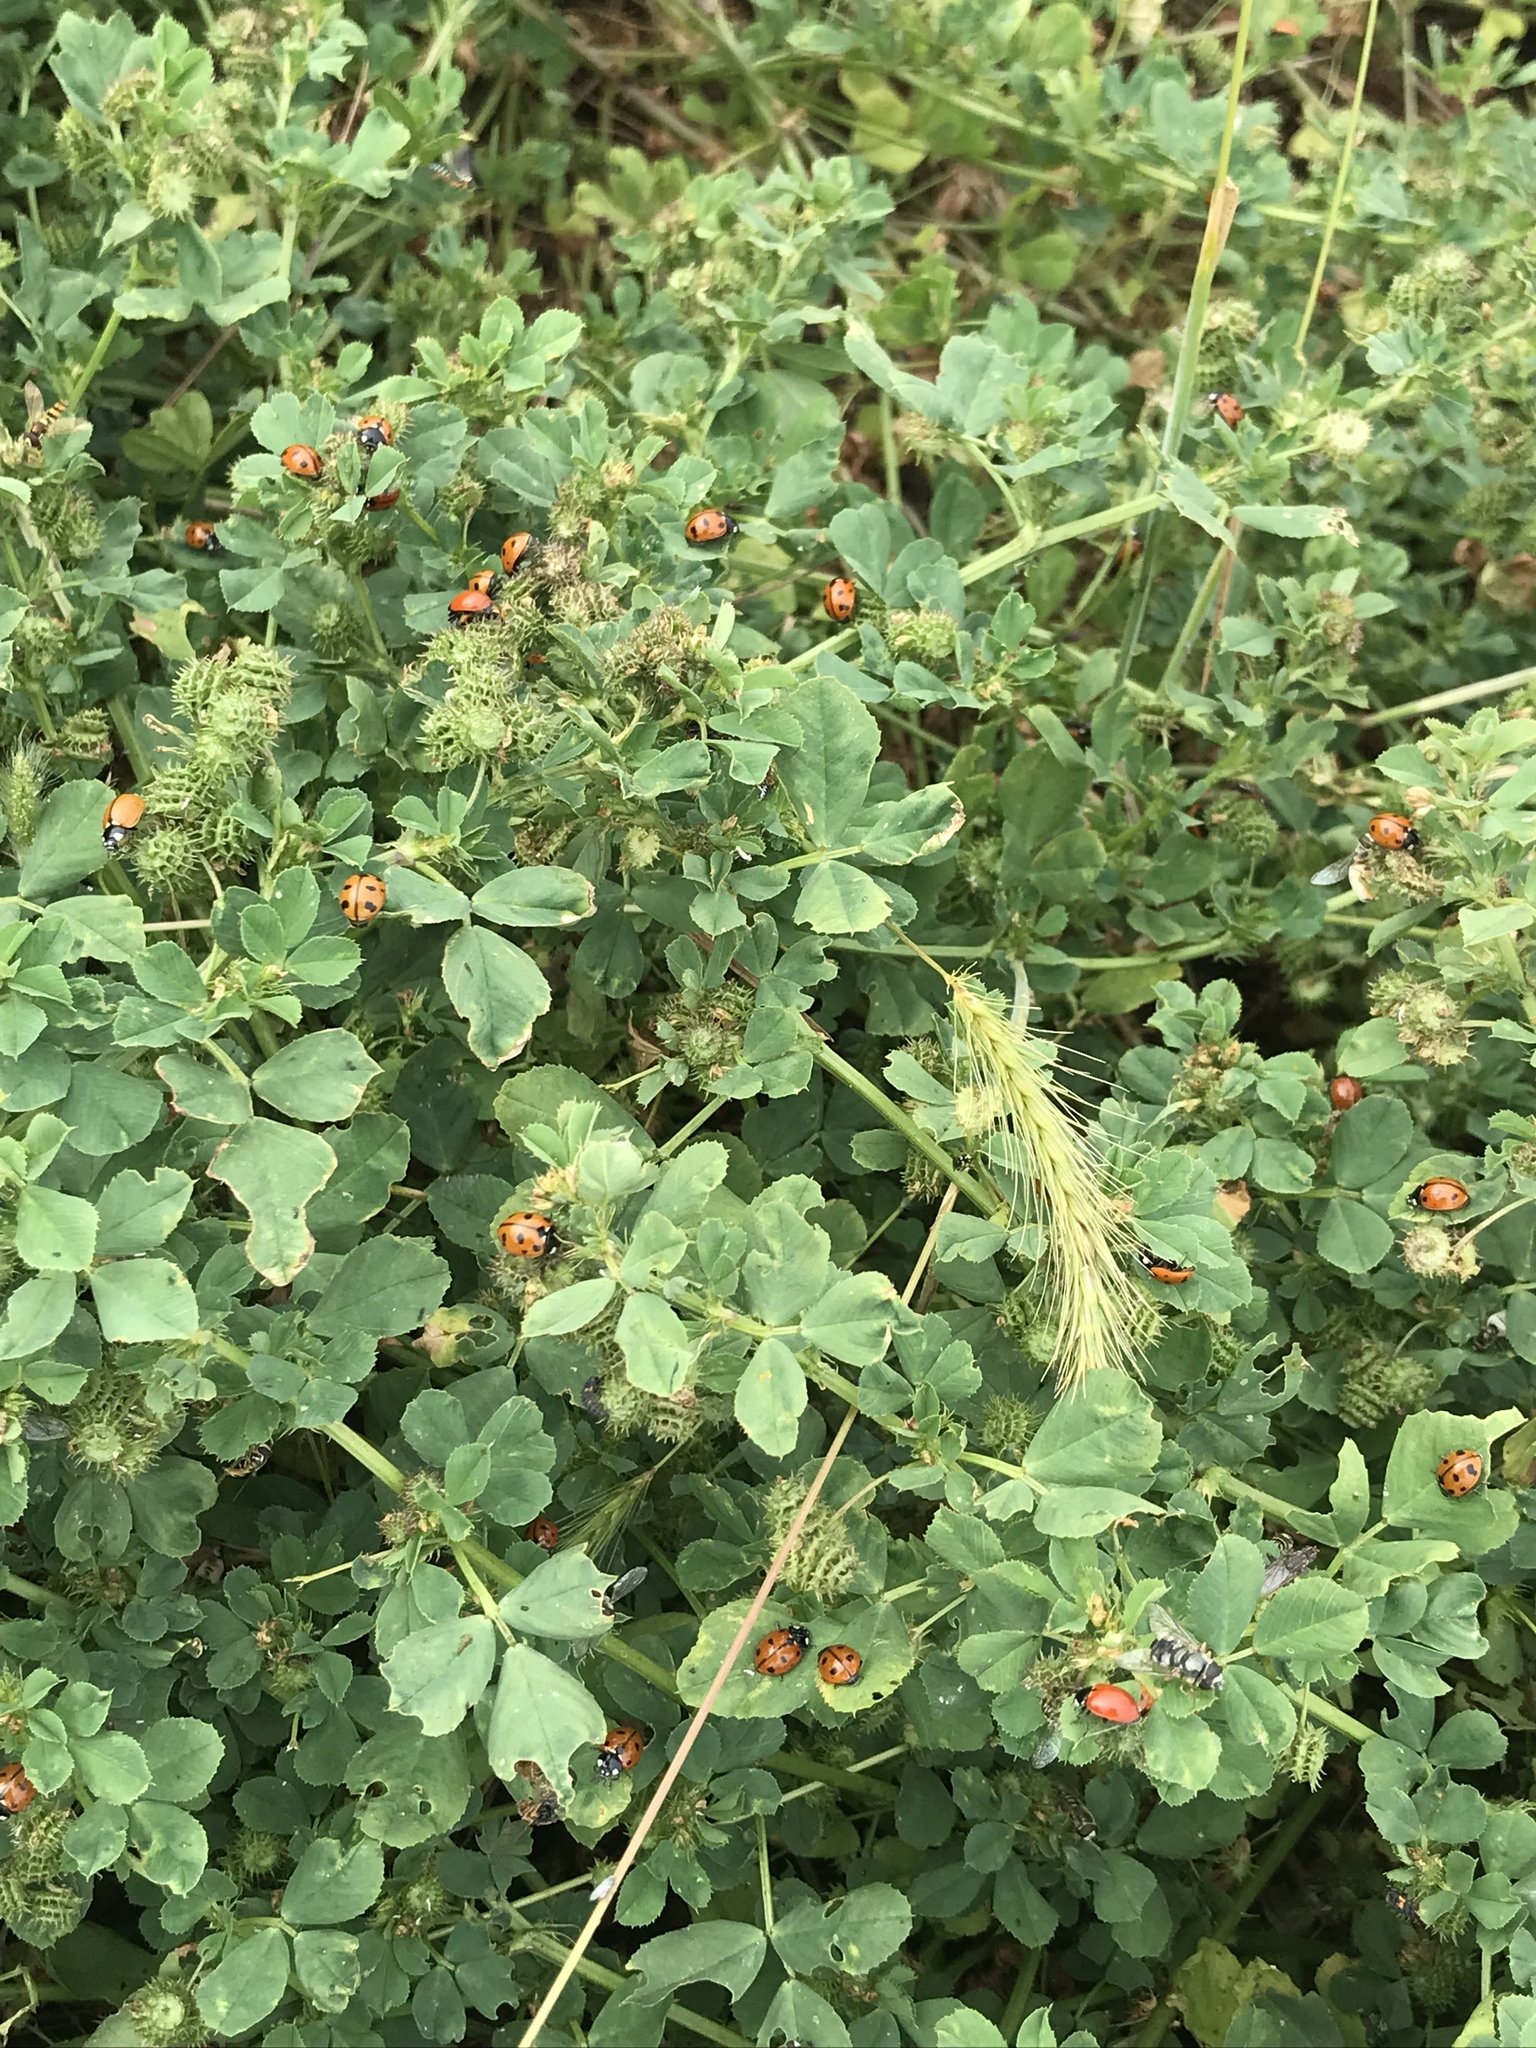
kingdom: Animalia
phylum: Arthropoda
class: Insecta
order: Coleoptera
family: Coccinellidae
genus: Coccinella
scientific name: Coccinella californica
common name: Lady beetle
